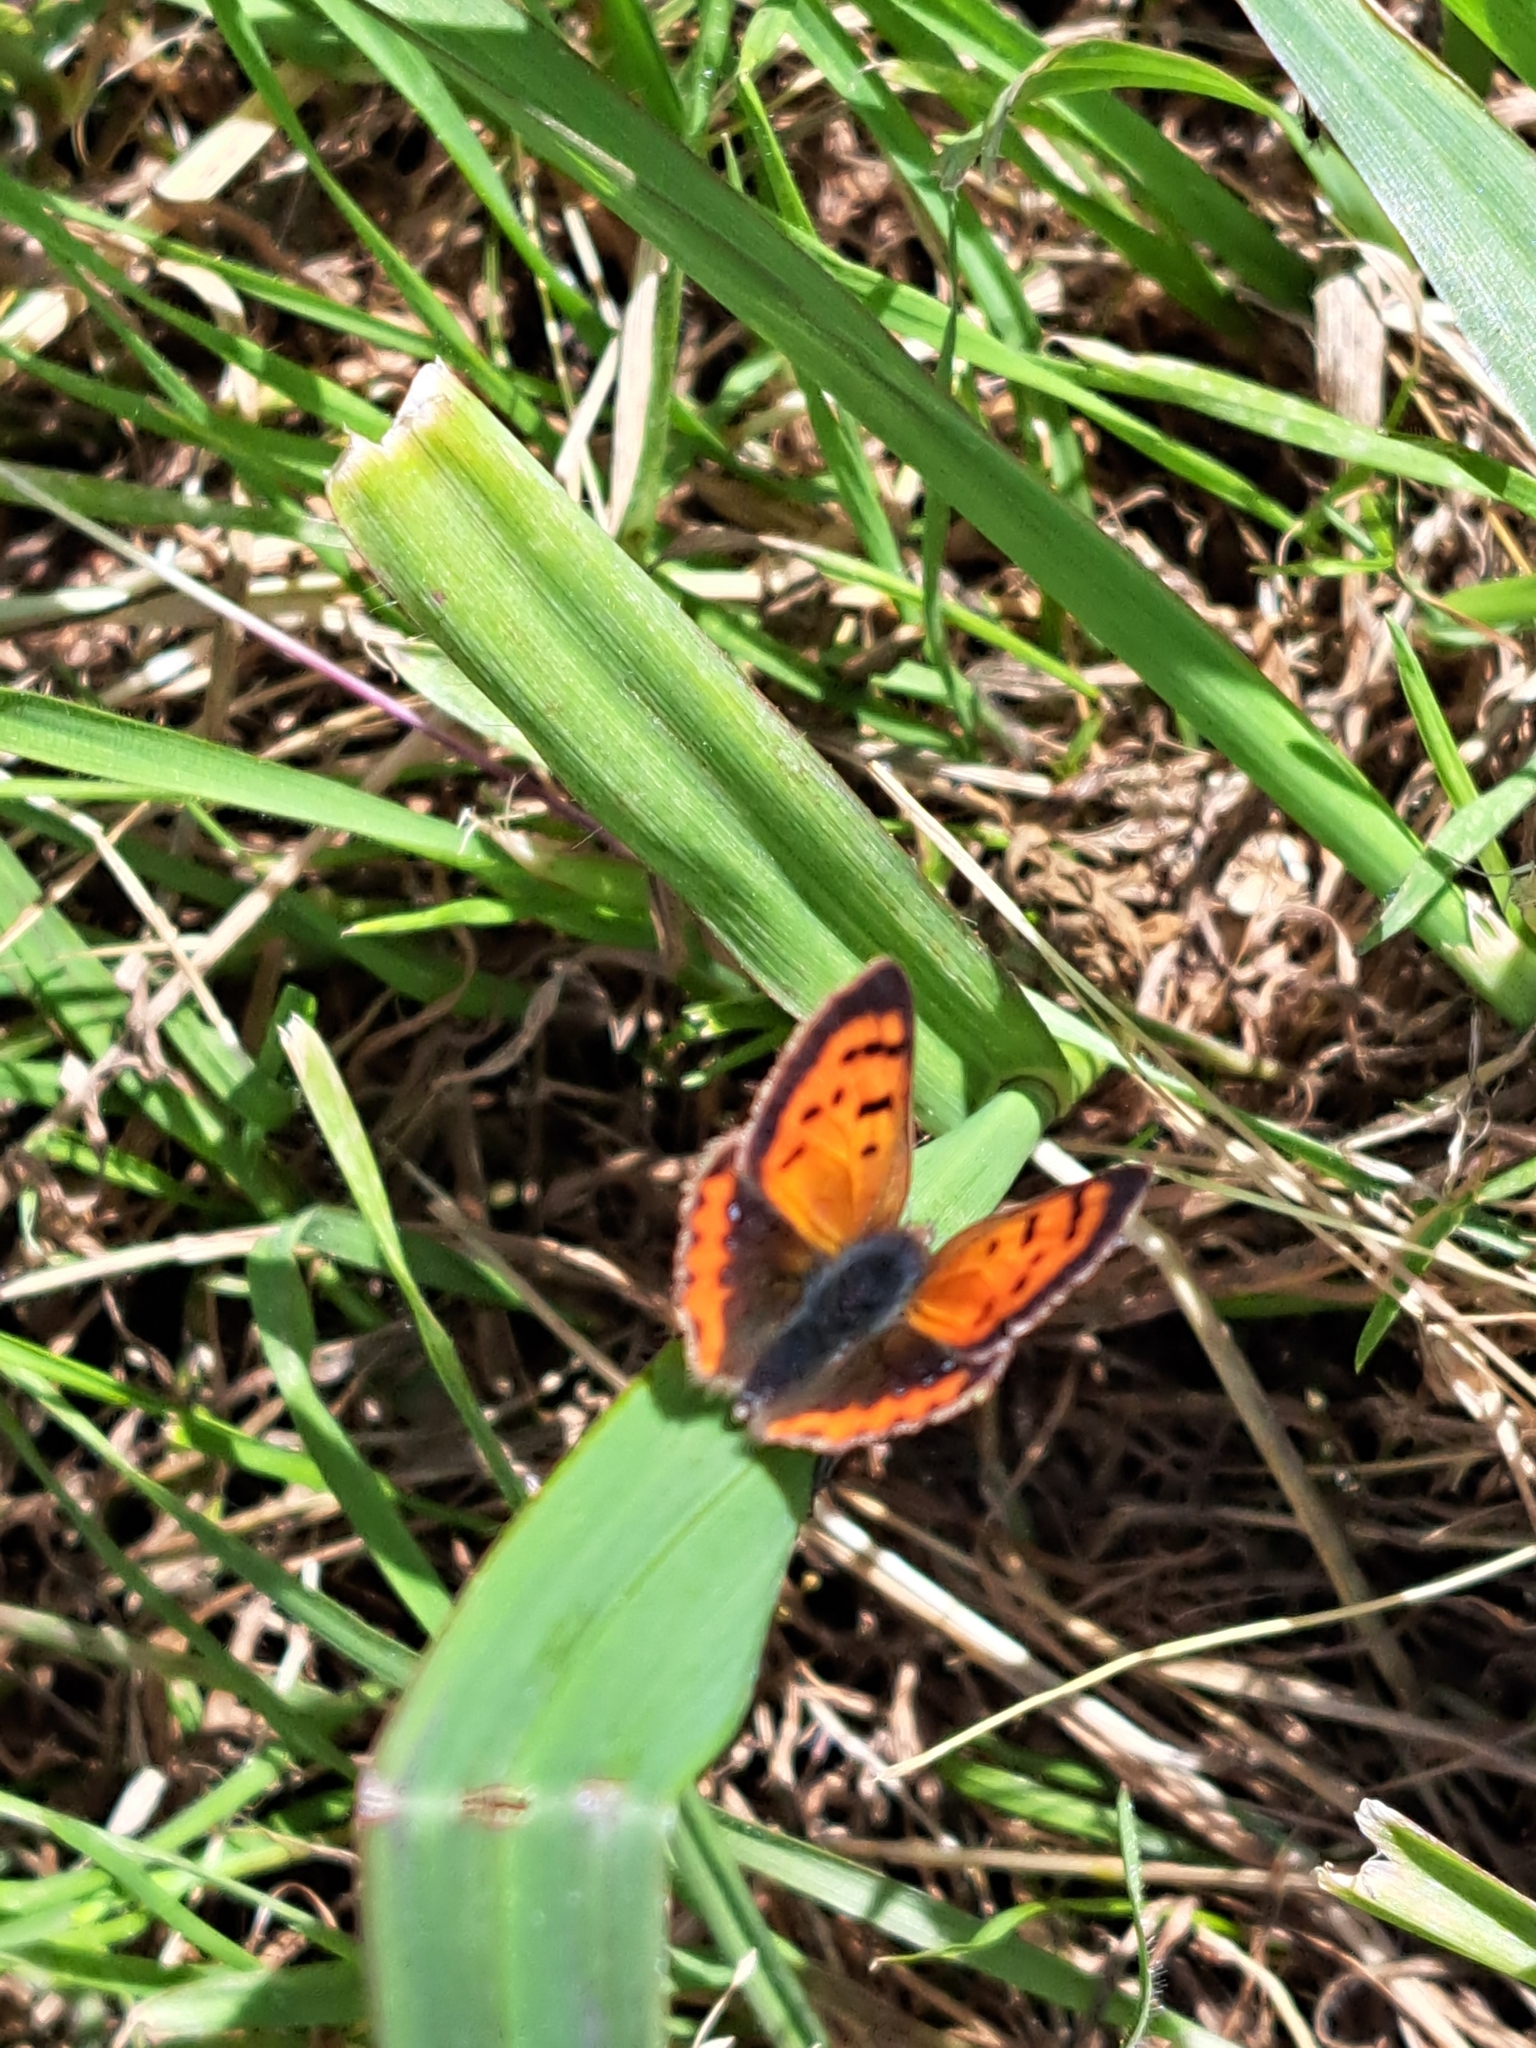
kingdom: Animalia
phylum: Arthropoda
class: Insecta
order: Lepidoptera
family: Lycaenidae
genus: Lycaena
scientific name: Lycaena phlaeas
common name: Small copper
